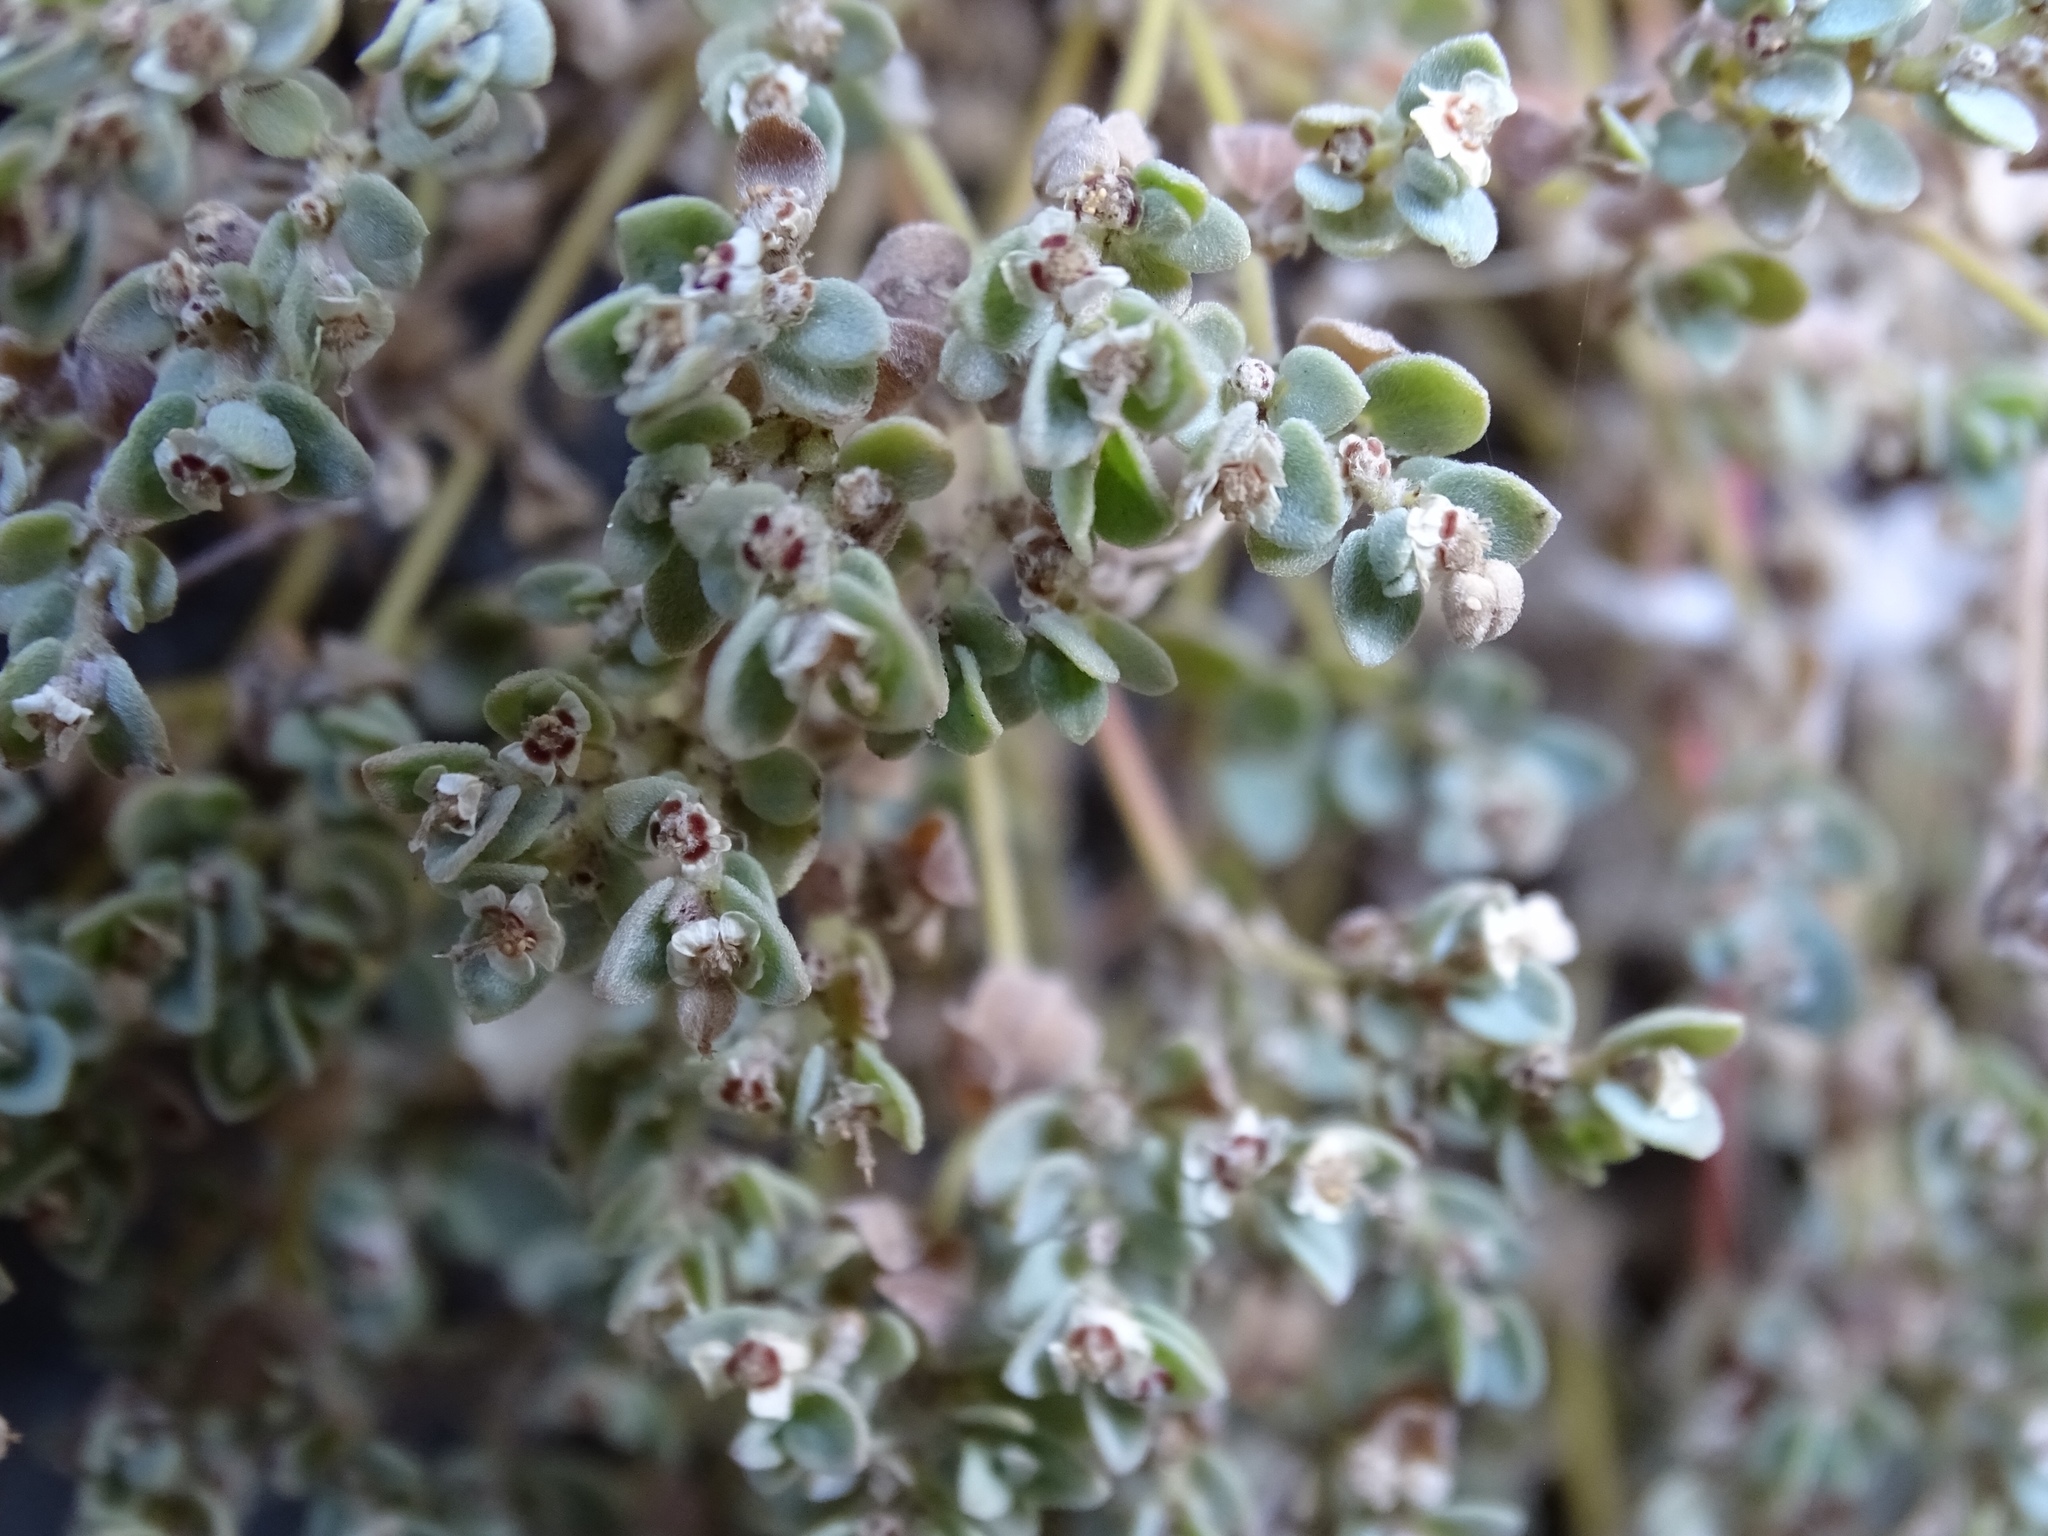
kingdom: Plantae
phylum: Tracheophyta
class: Magnoliopsida
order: Malpighiales
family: Euphorbiaceae
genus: Euphorbia
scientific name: Euphorbia melanadenia
